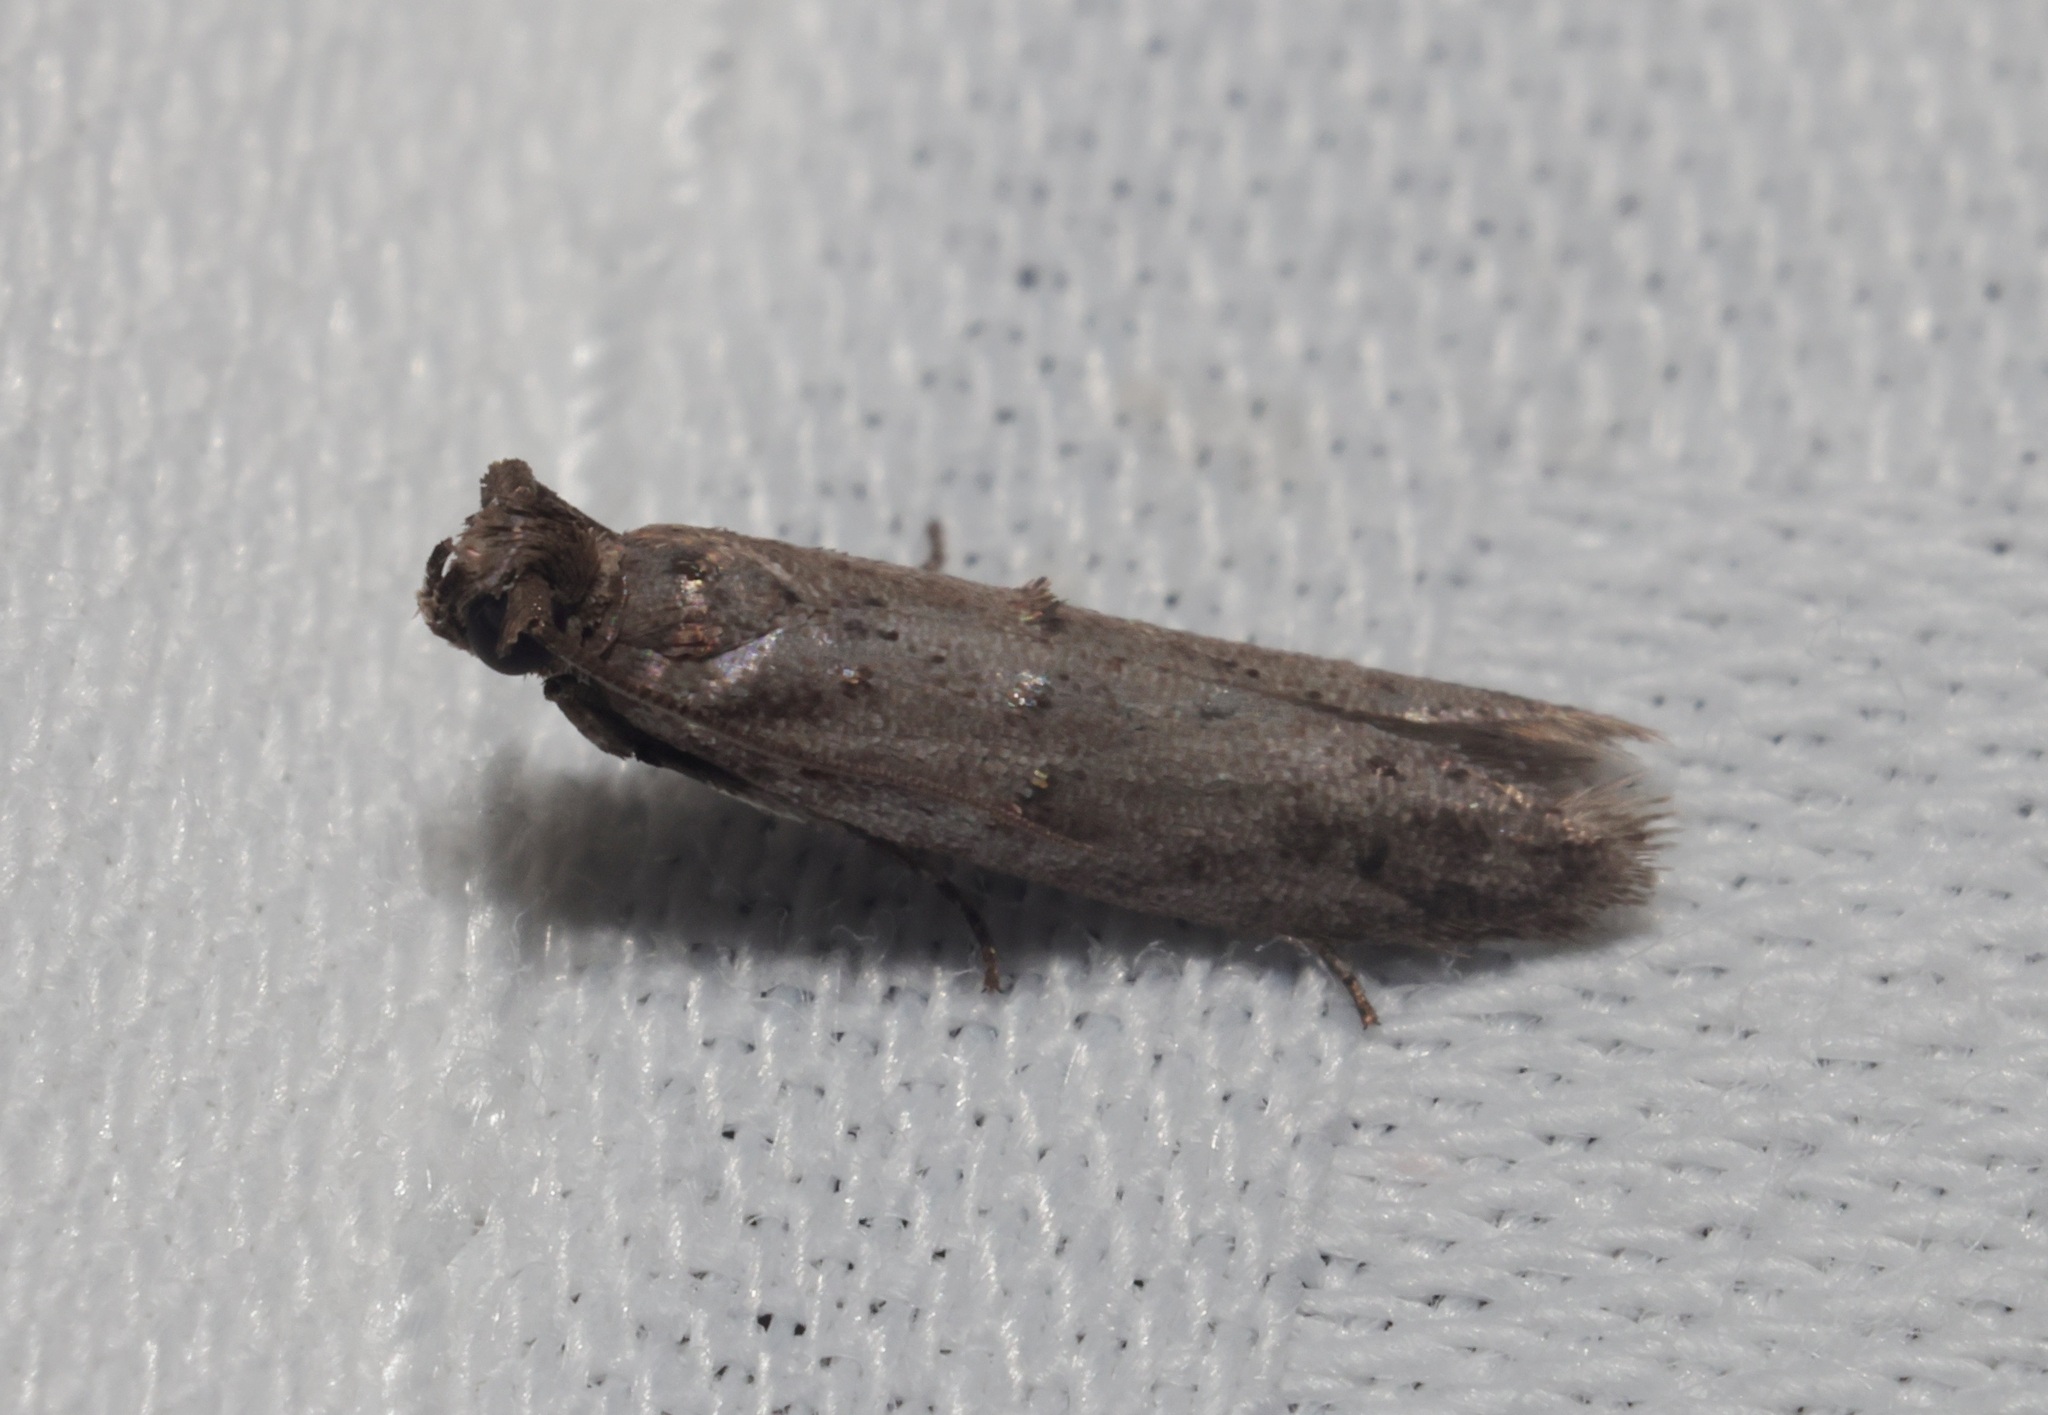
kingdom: Animalia
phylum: Arthropoda
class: Insecta
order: Lepidoptera
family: Pyralidae
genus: Copamyntis
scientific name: Copamyntis leptocosma
